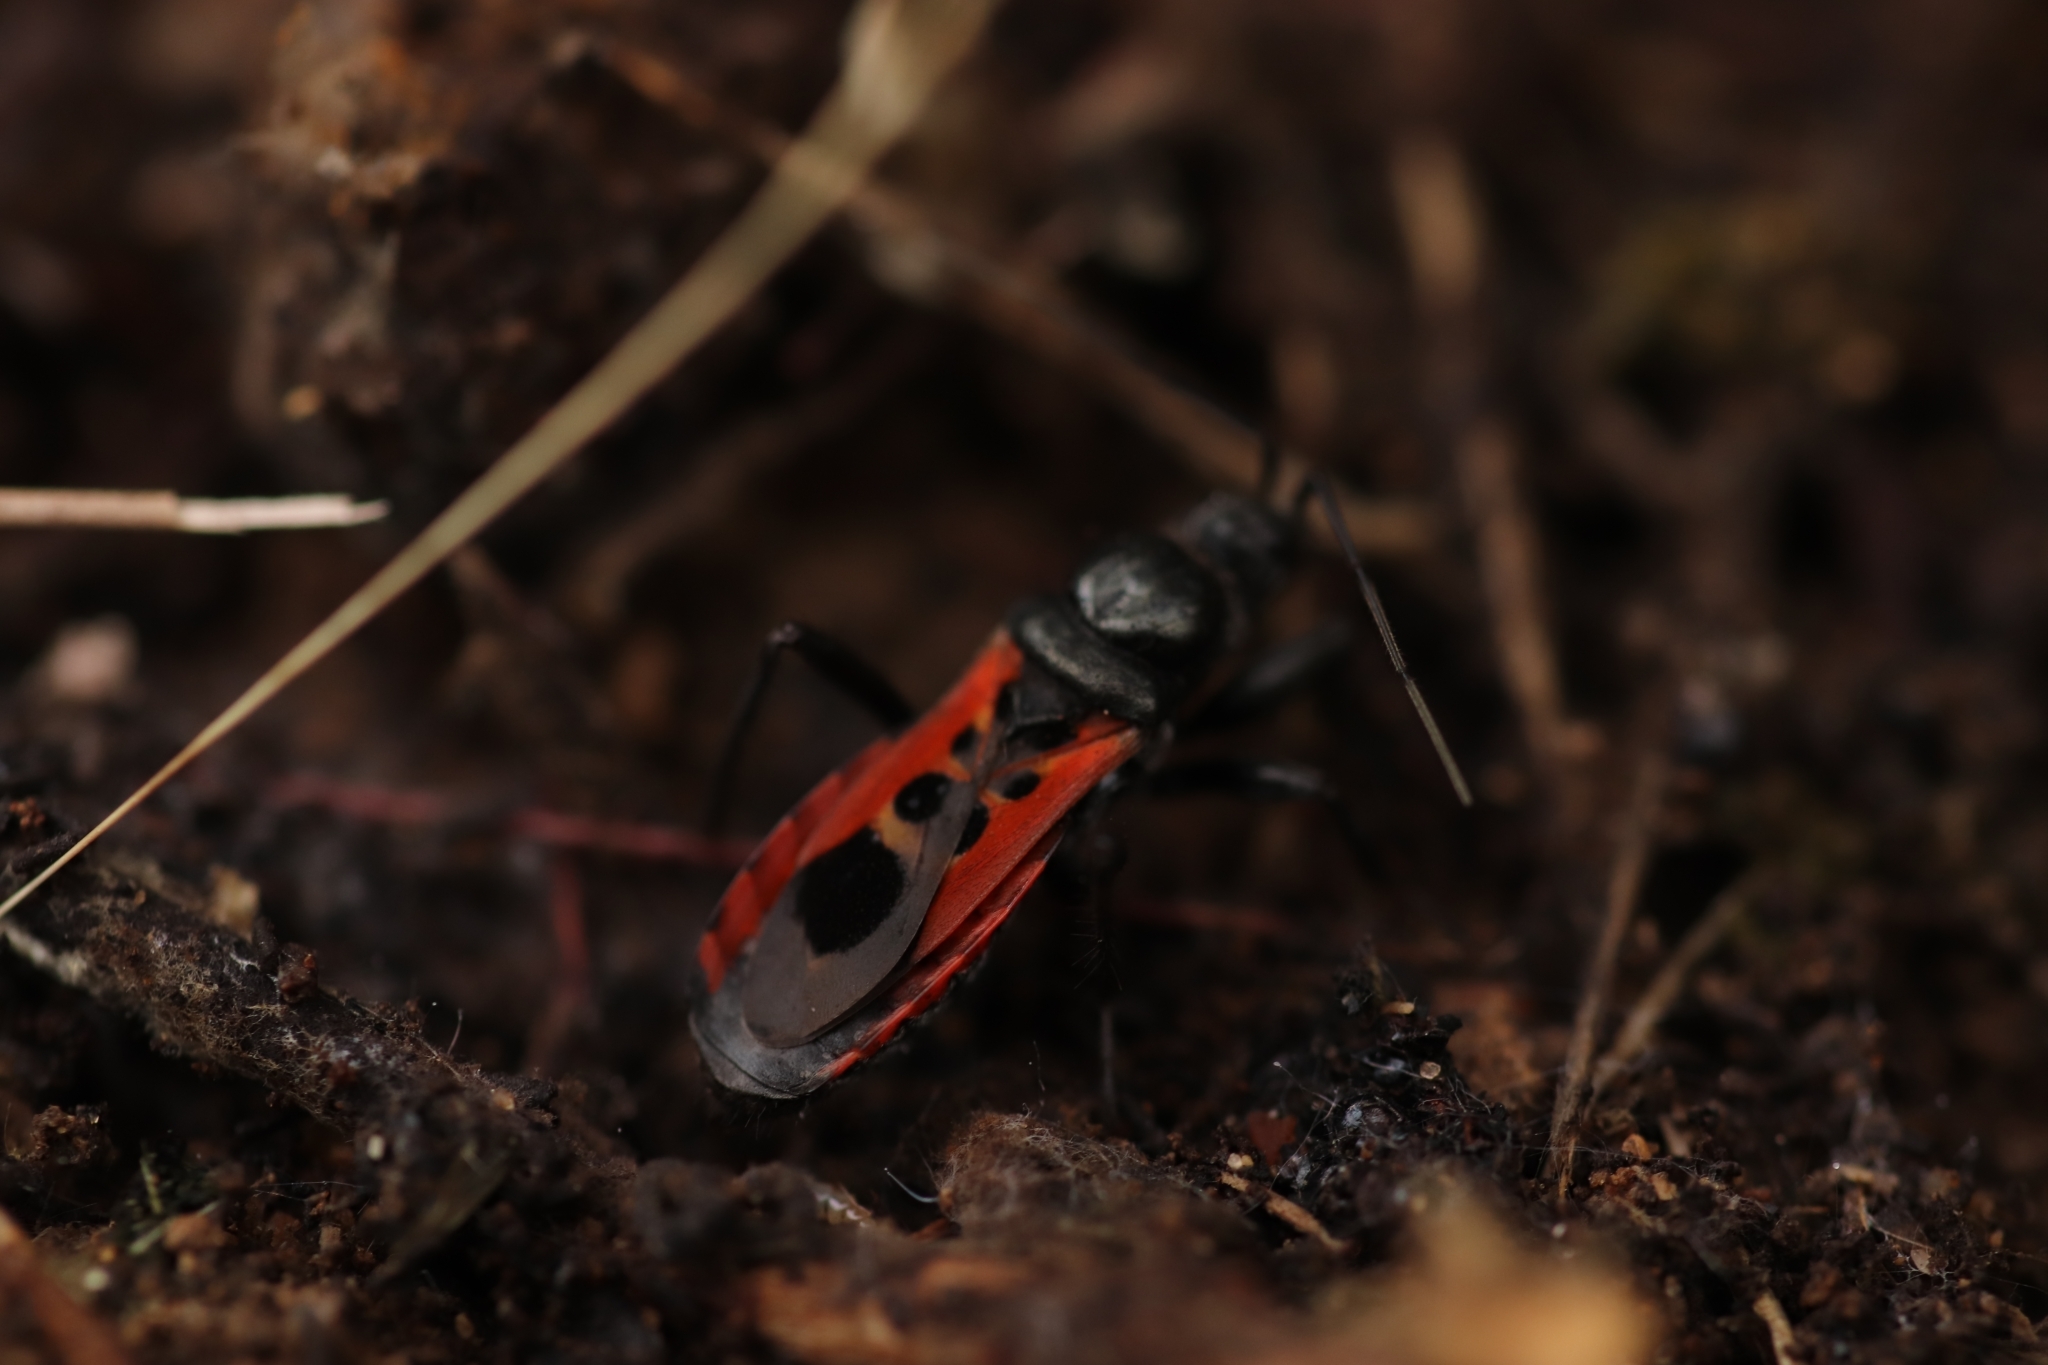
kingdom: Animalia
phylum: Arthropoda
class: Insecta
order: Hemiptera
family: Reduviidae
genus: Peirates
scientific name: Peirates stridulus
